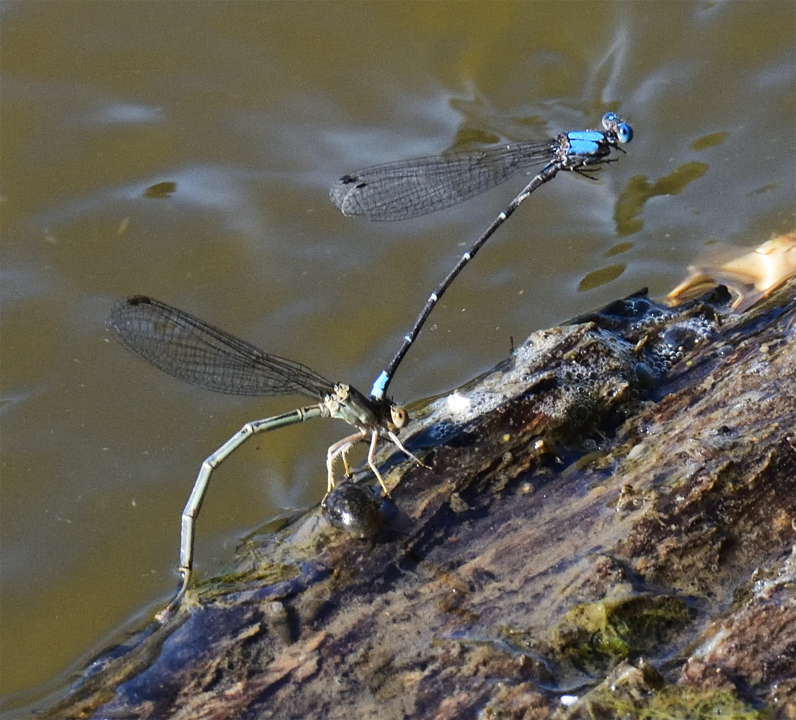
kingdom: Animalia
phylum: Arthropoda
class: Insecta
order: Odonata
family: Coenagrionidae
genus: Argia
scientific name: Argia apicalis
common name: Blue-fronted dancer
